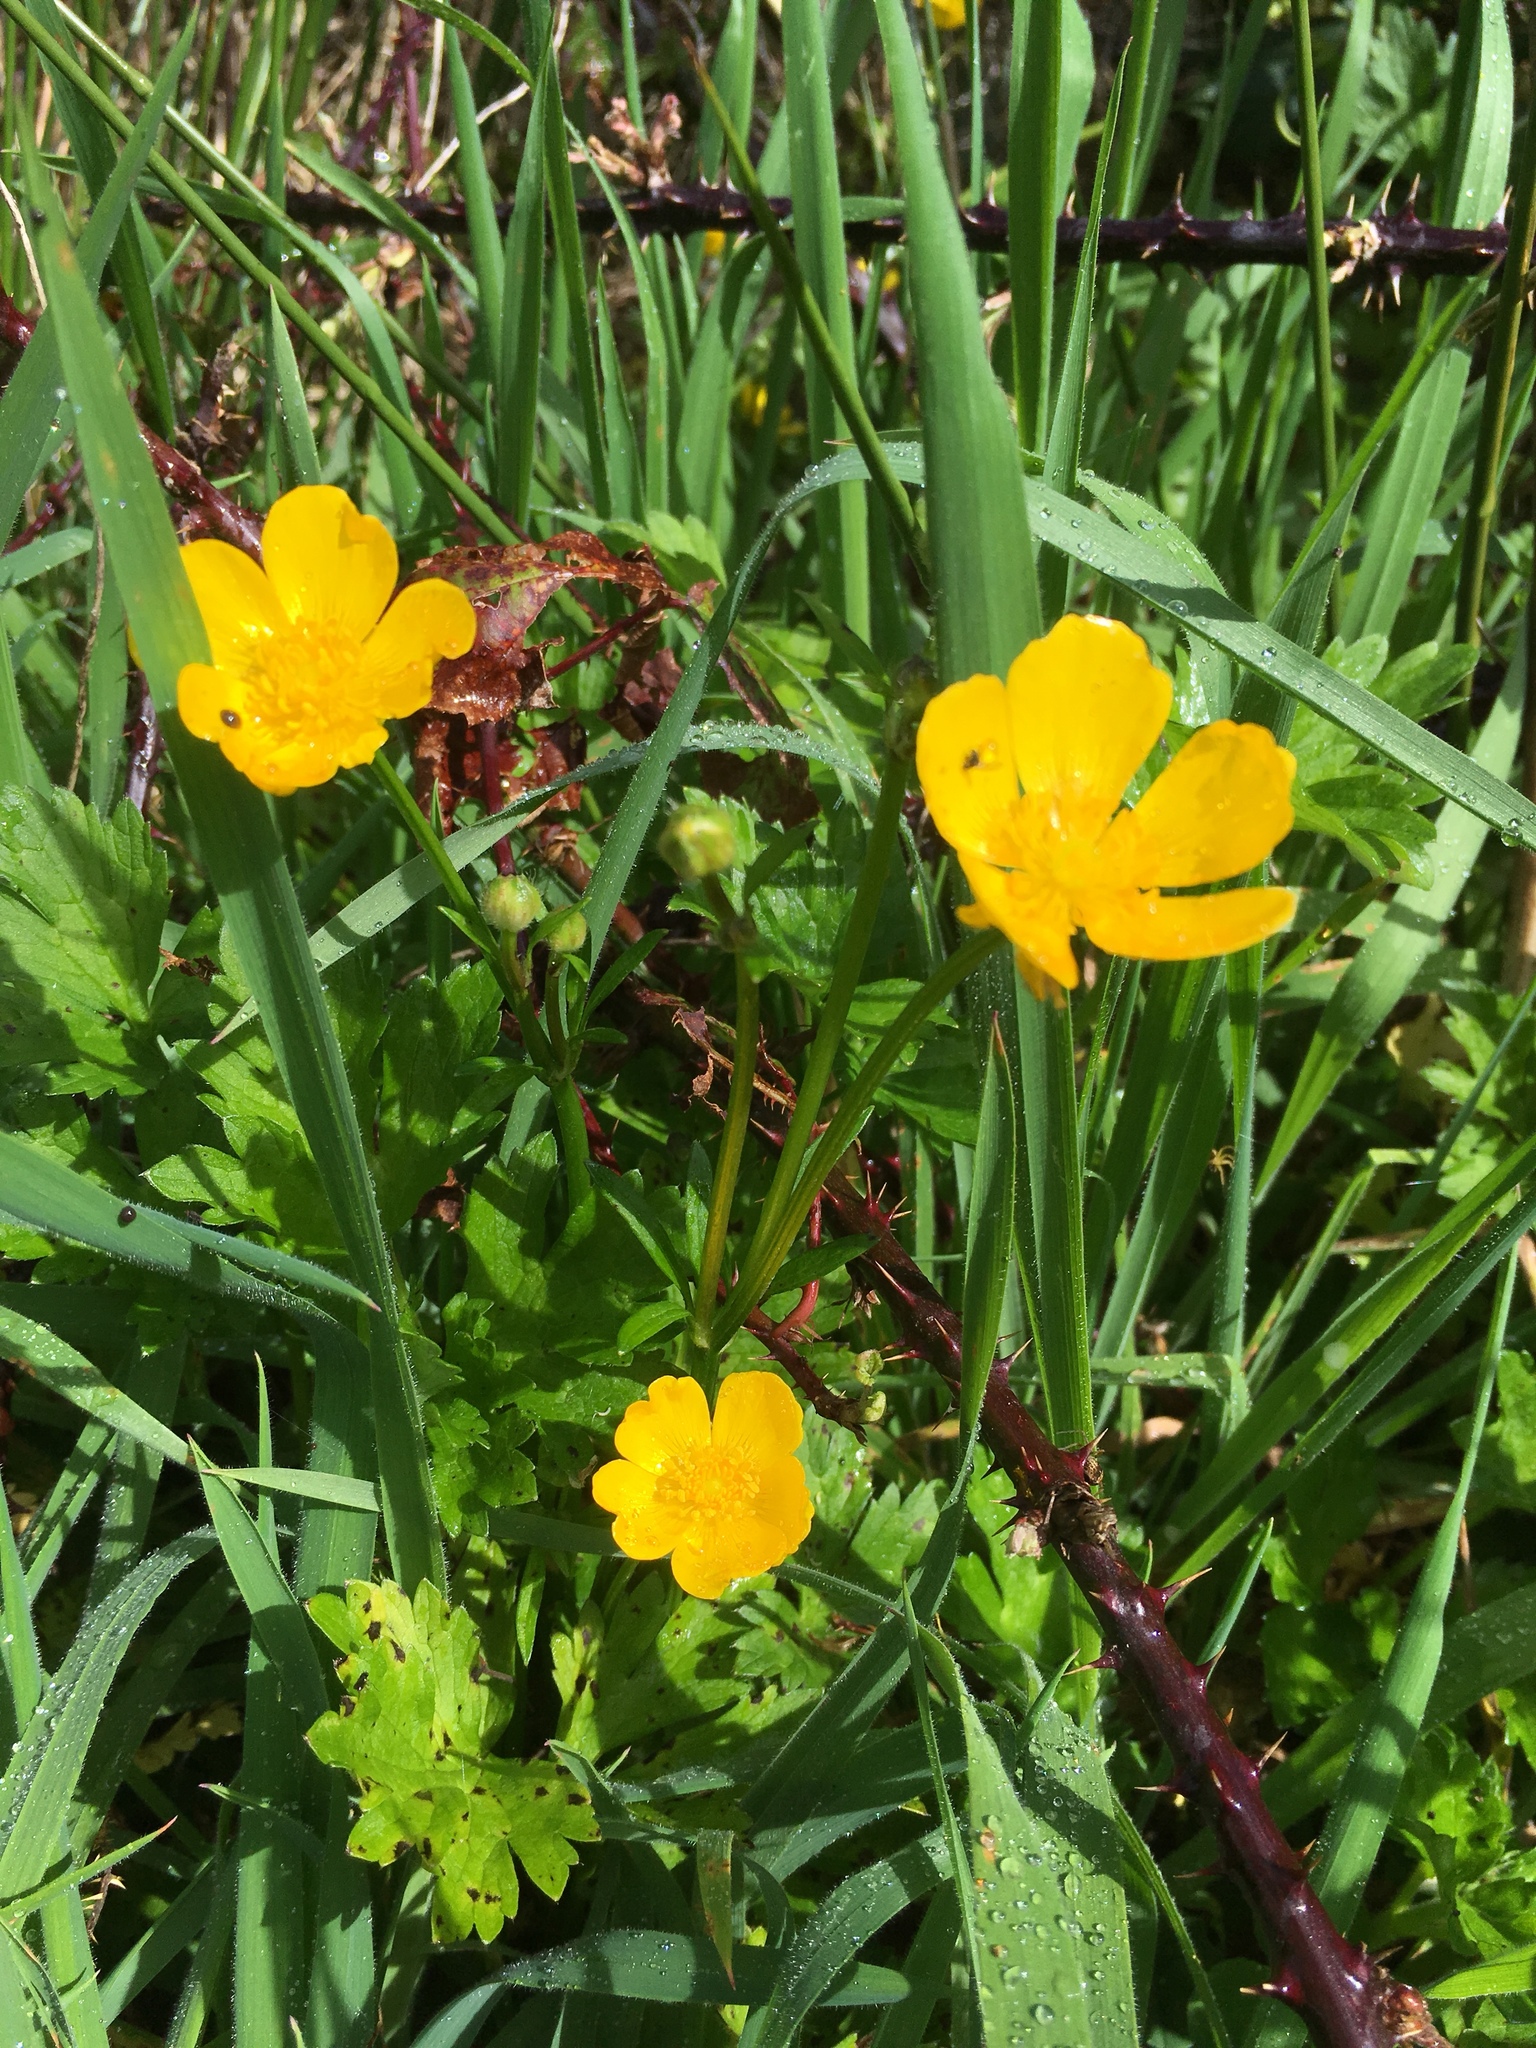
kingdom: Plantae
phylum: Tracheophyta
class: Magnoliopsida
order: Ranunculales
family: Ranunculaceae
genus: Ranunculus
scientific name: Ranunculus repens
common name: Creeping buttercup
